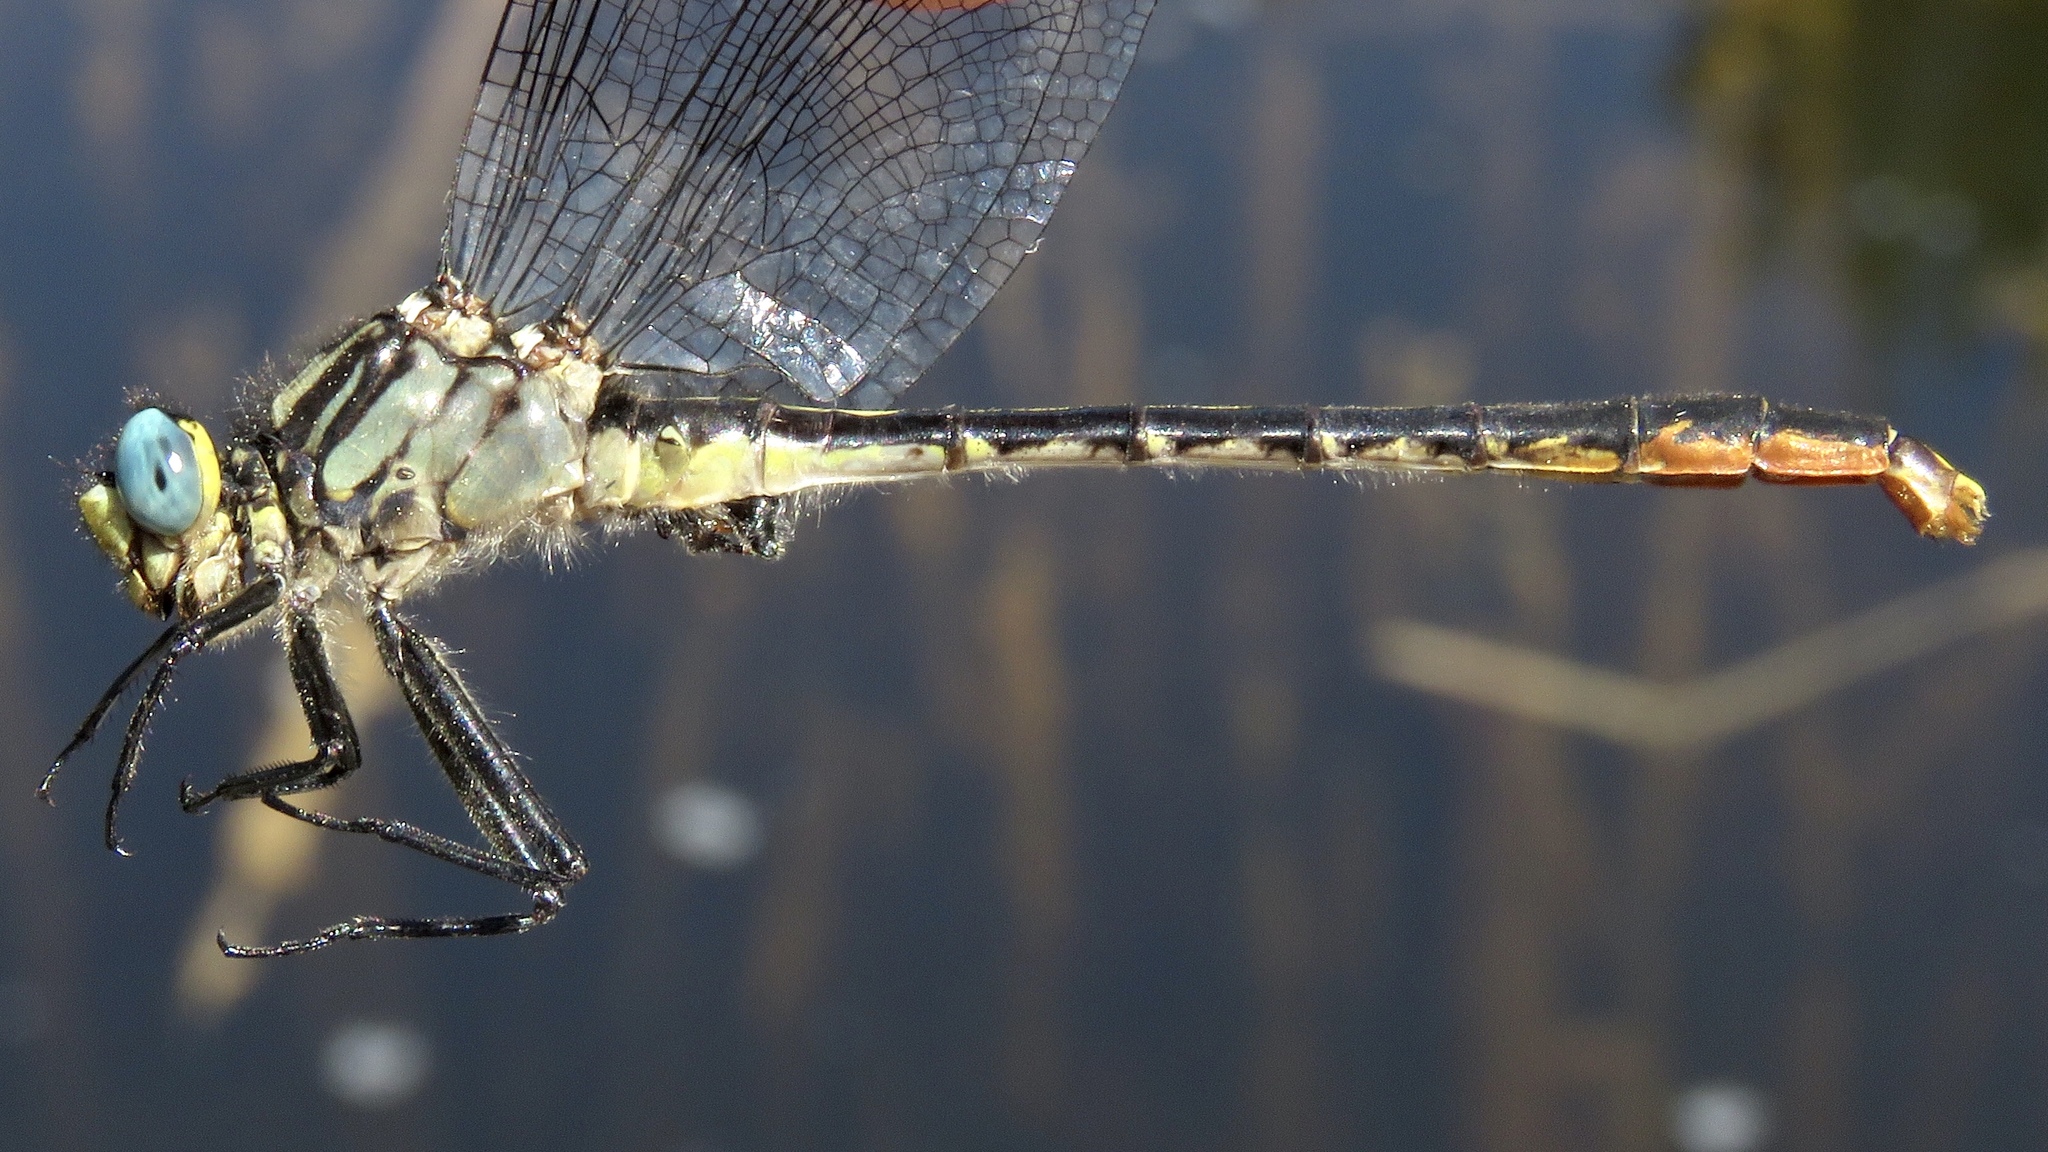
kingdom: Animalia
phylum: Arthropoda
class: Insecta
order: Odonata
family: Gomphidae
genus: Arigomphus
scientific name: Arigomphus furcifer
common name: Lilypad clubtail
